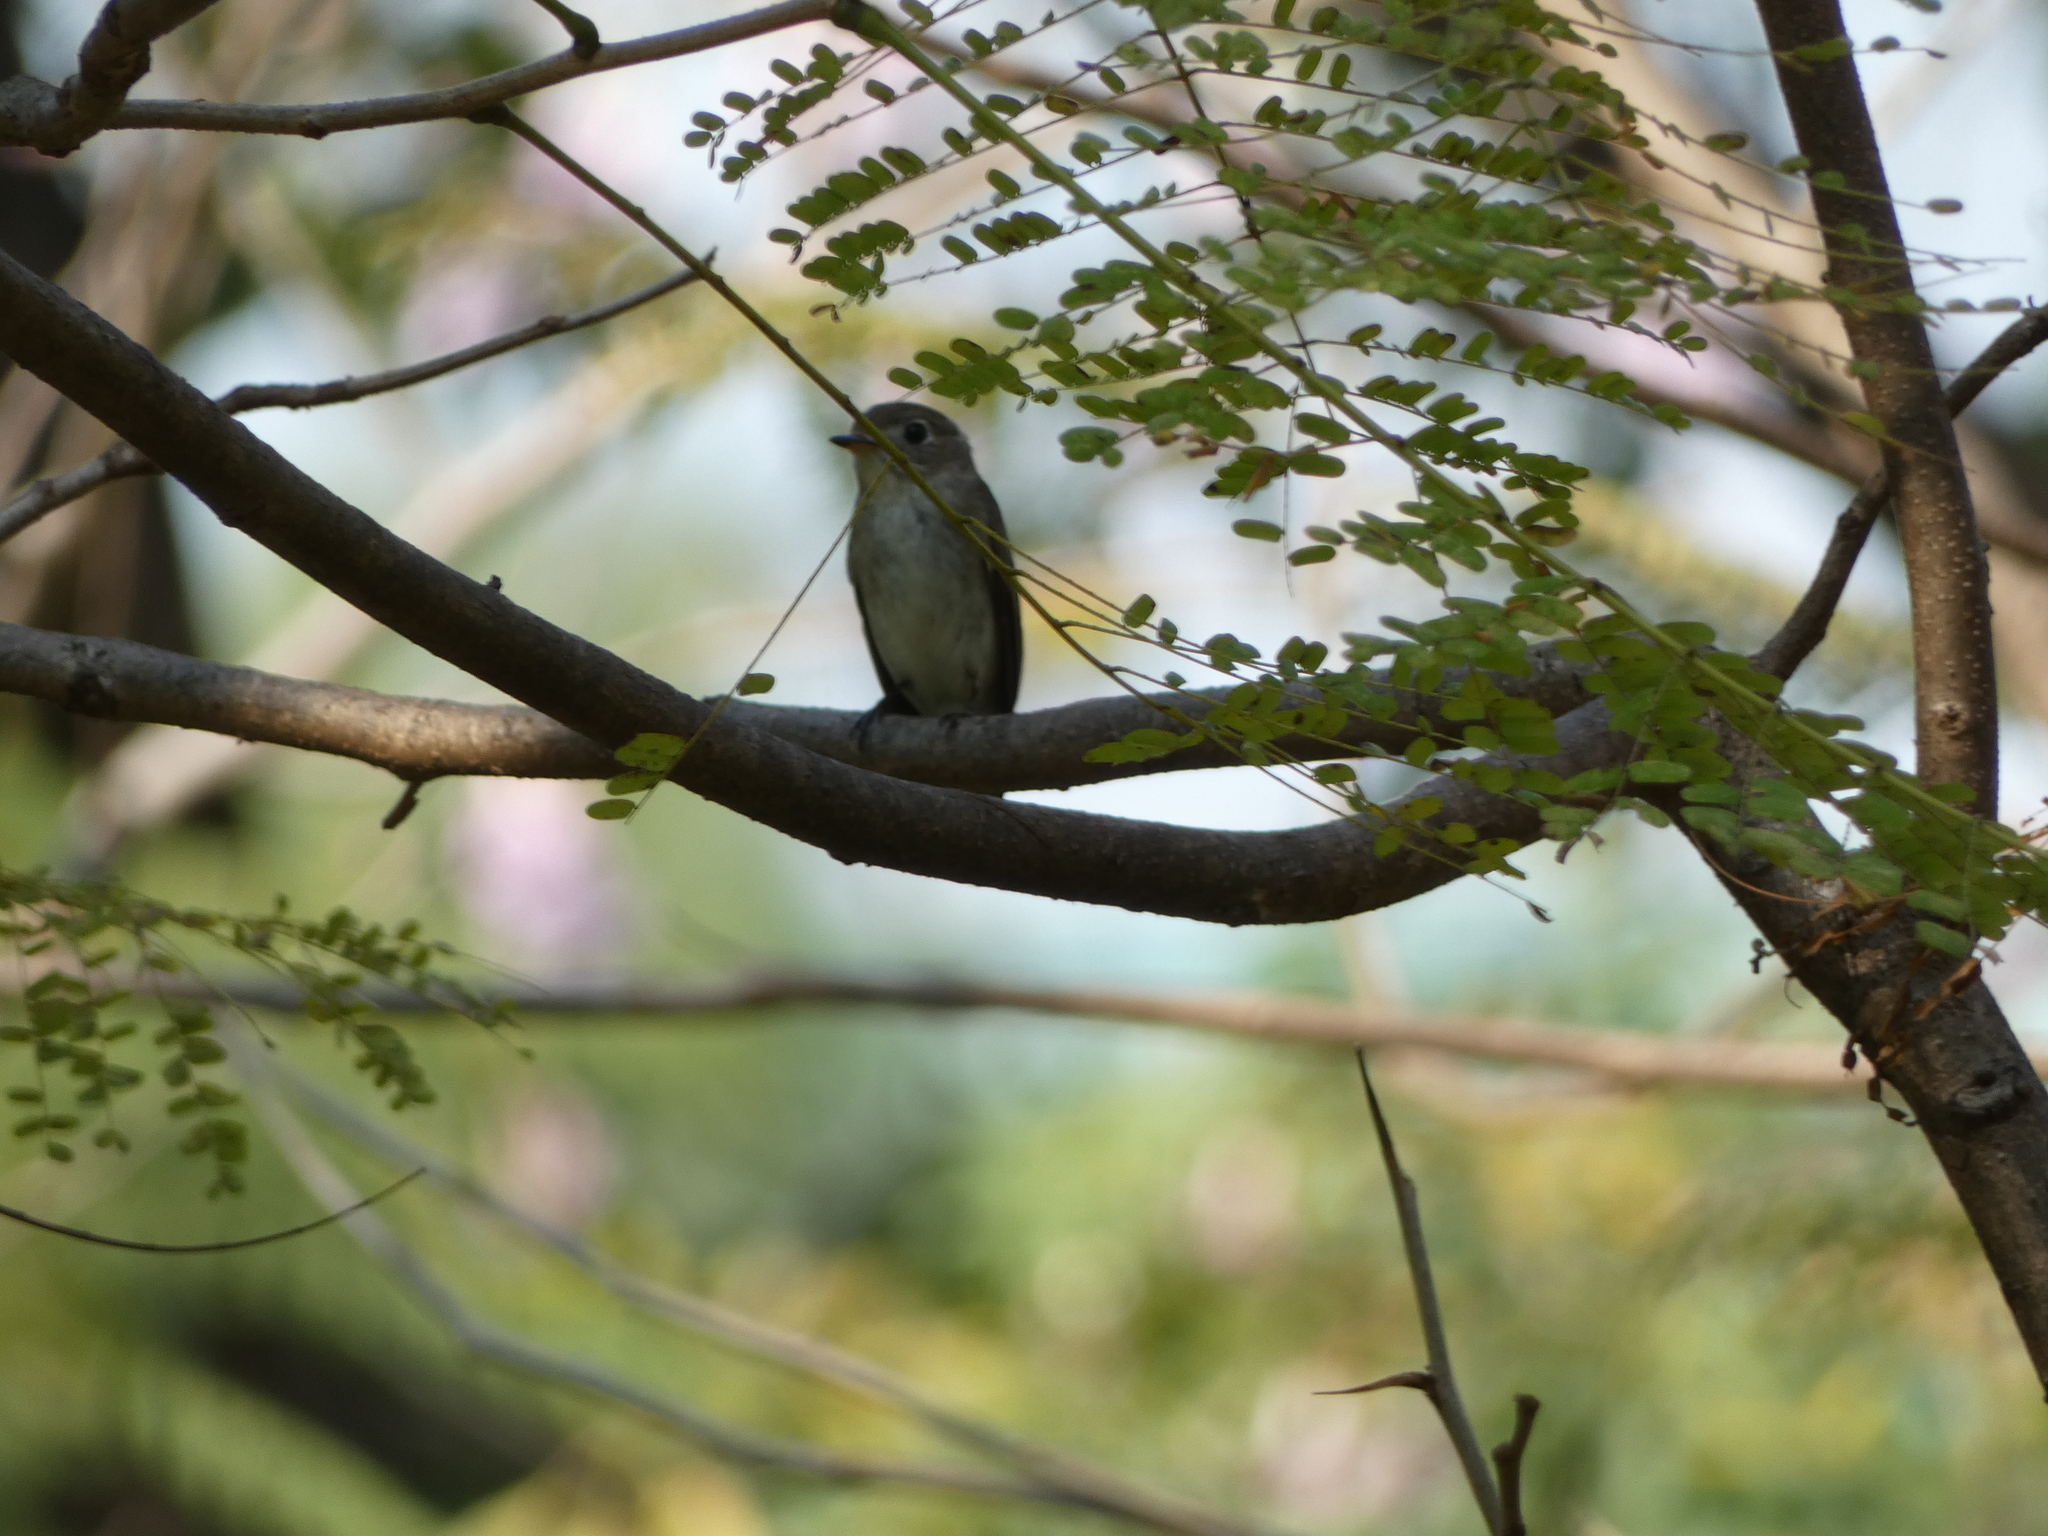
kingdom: Animalia
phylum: Chordata
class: Aves
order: Passeriformes
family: Muscicapidae
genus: Muscicapa
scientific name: Muscicapa latirostris
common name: Asian brown flycatcher
